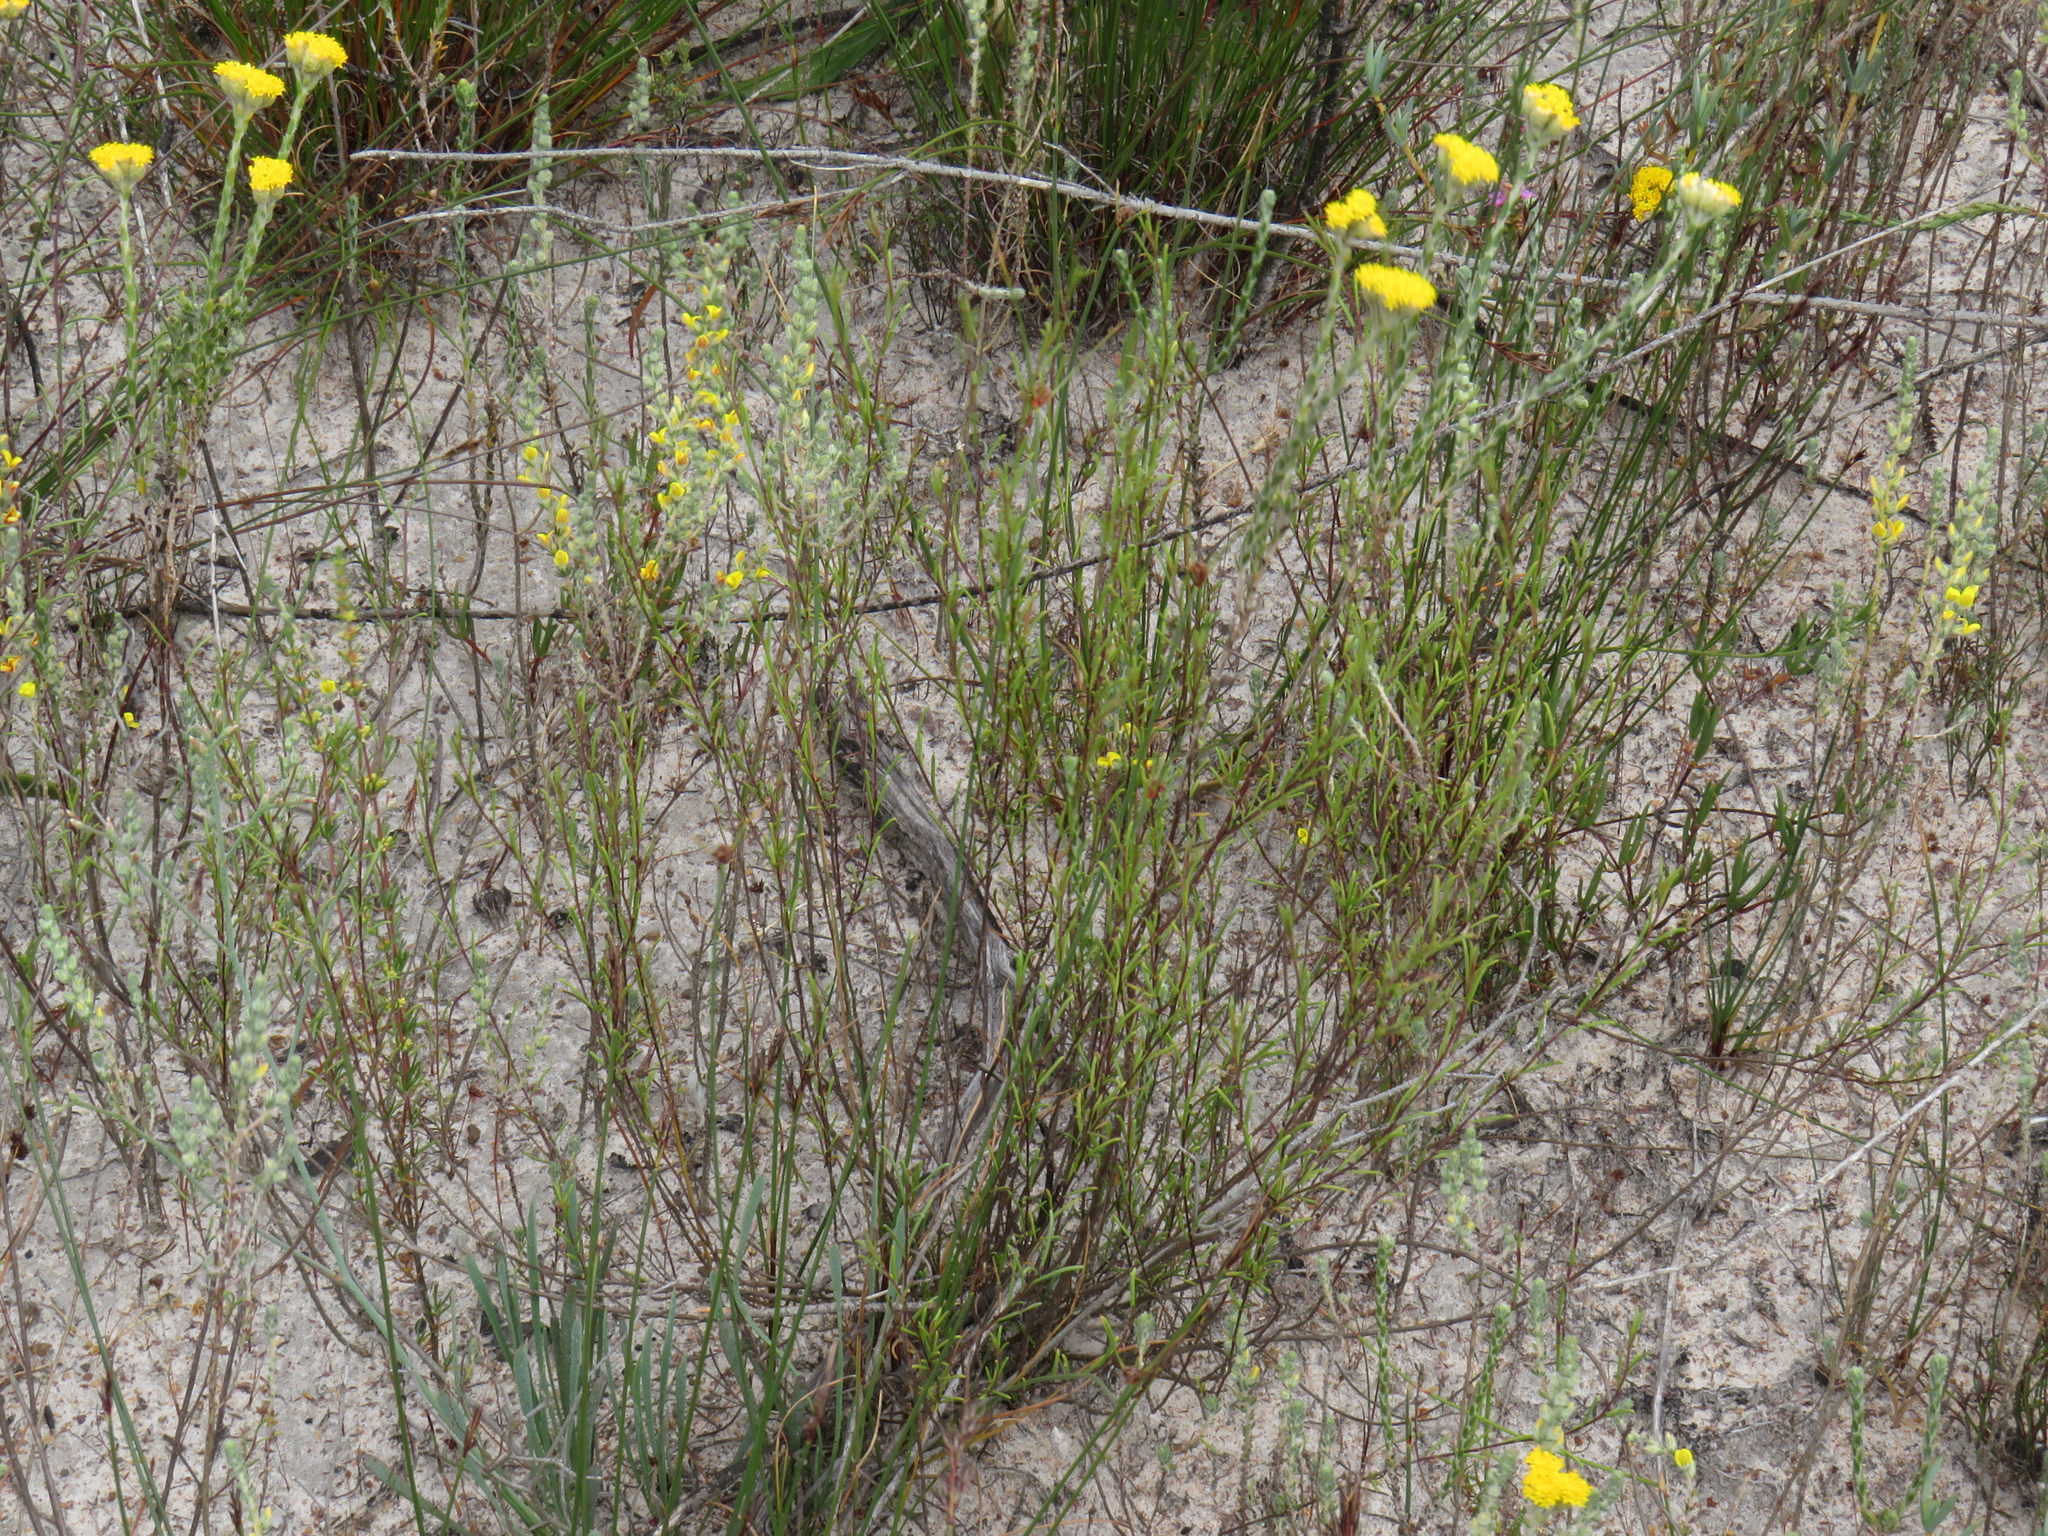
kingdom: Plantae
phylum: Tracheophyta
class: Magnoliopsida
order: Asterales
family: Asteraceae
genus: Marasmodes
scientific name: Marasmodes defoliata
